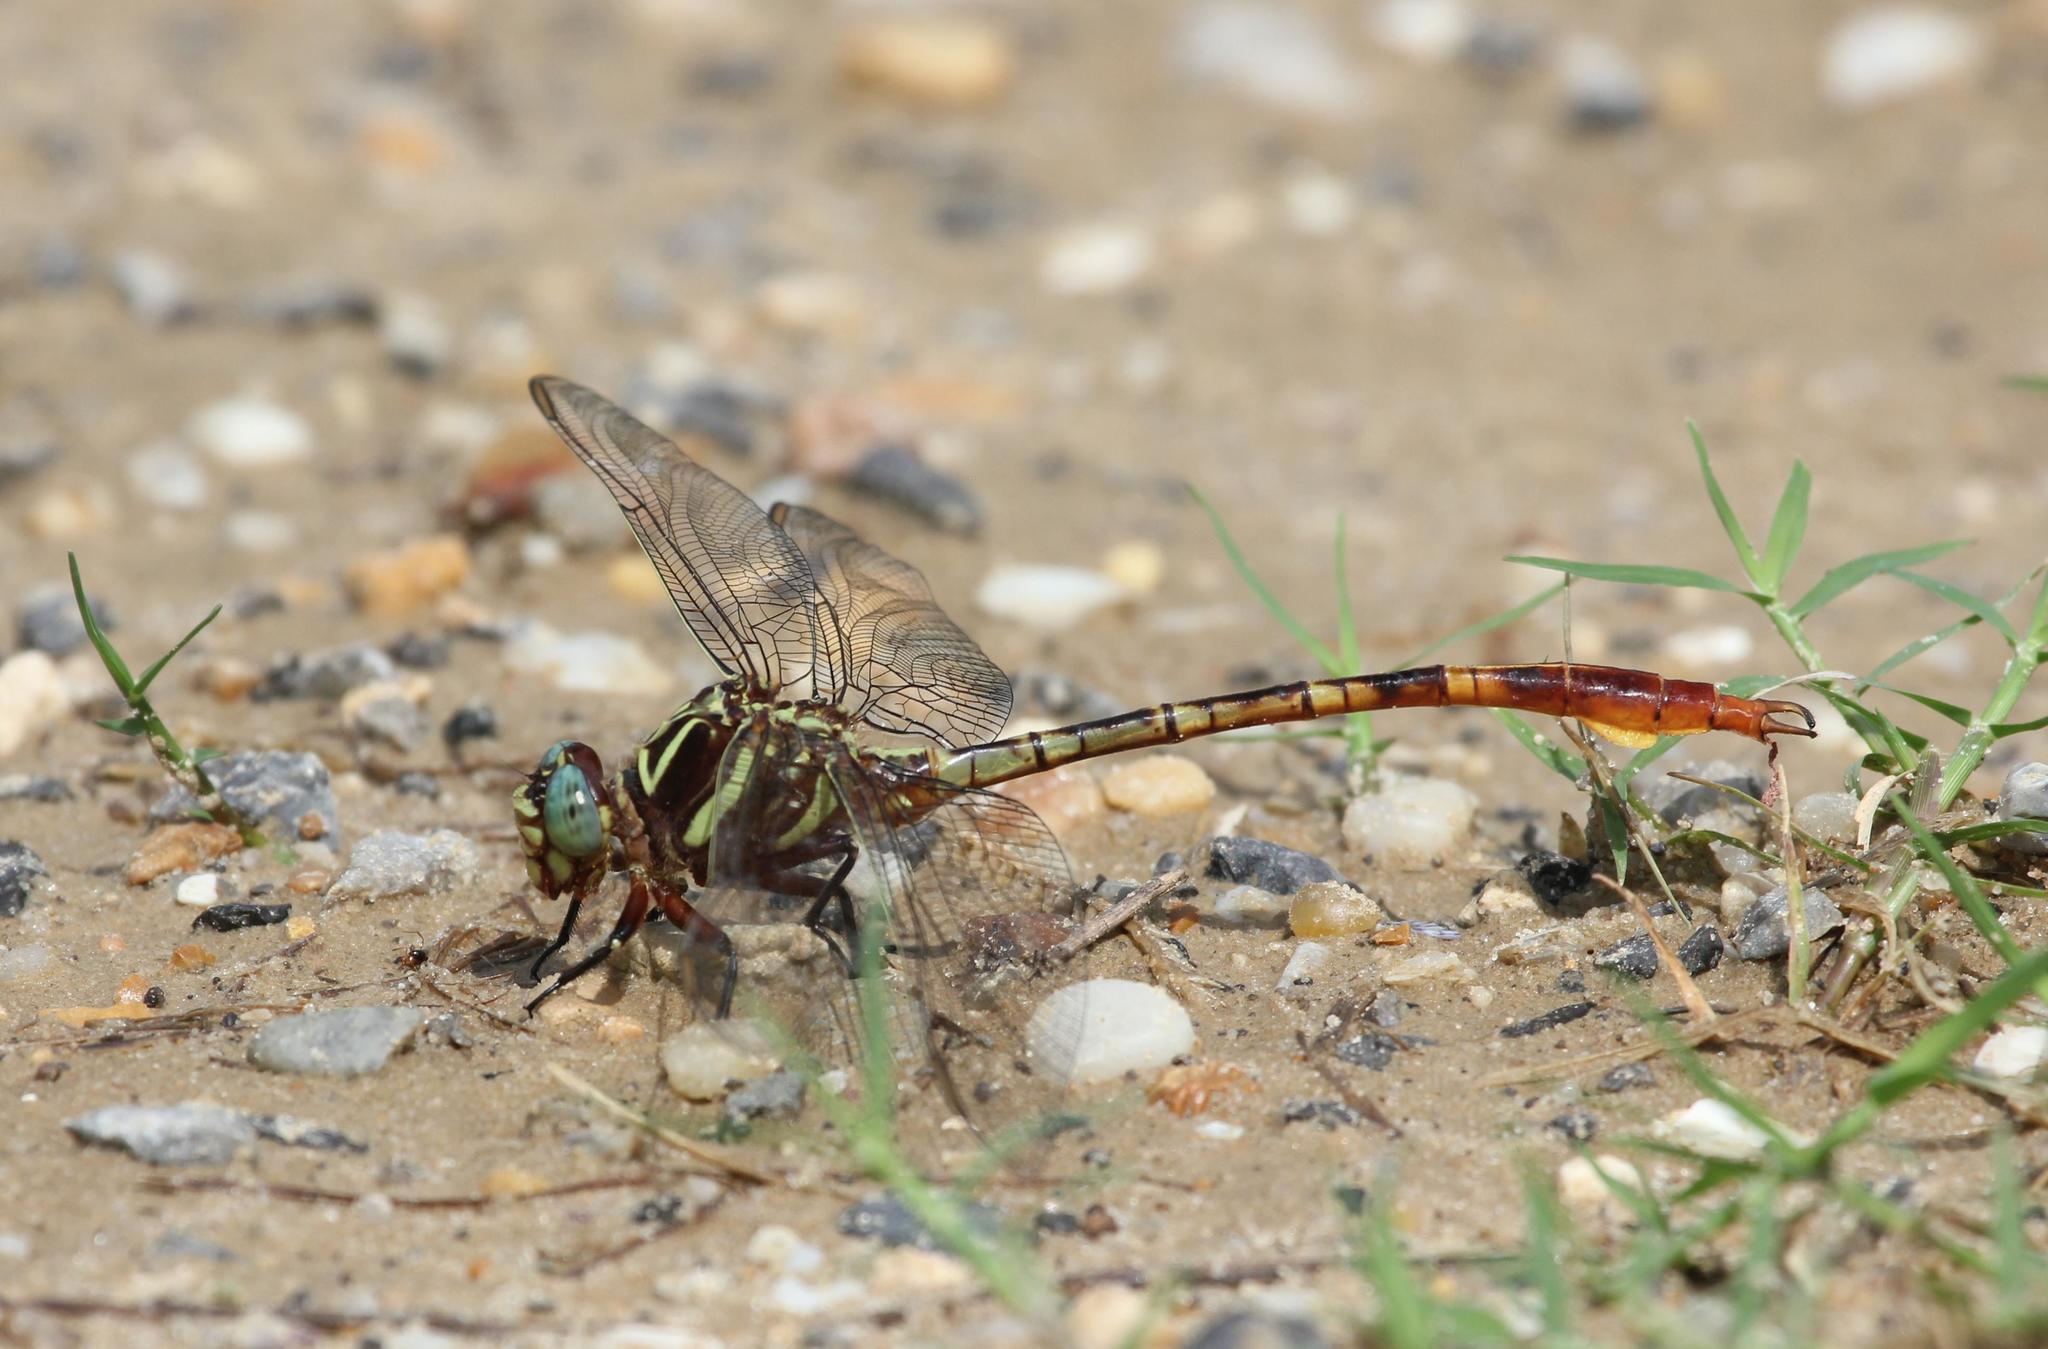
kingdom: Animalia
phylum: Arthropoda
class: Insecta
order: Odonata
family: Gomphidae
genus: Aphylla
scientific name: Aphylla williamsoni
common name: Two-striped forceptail
